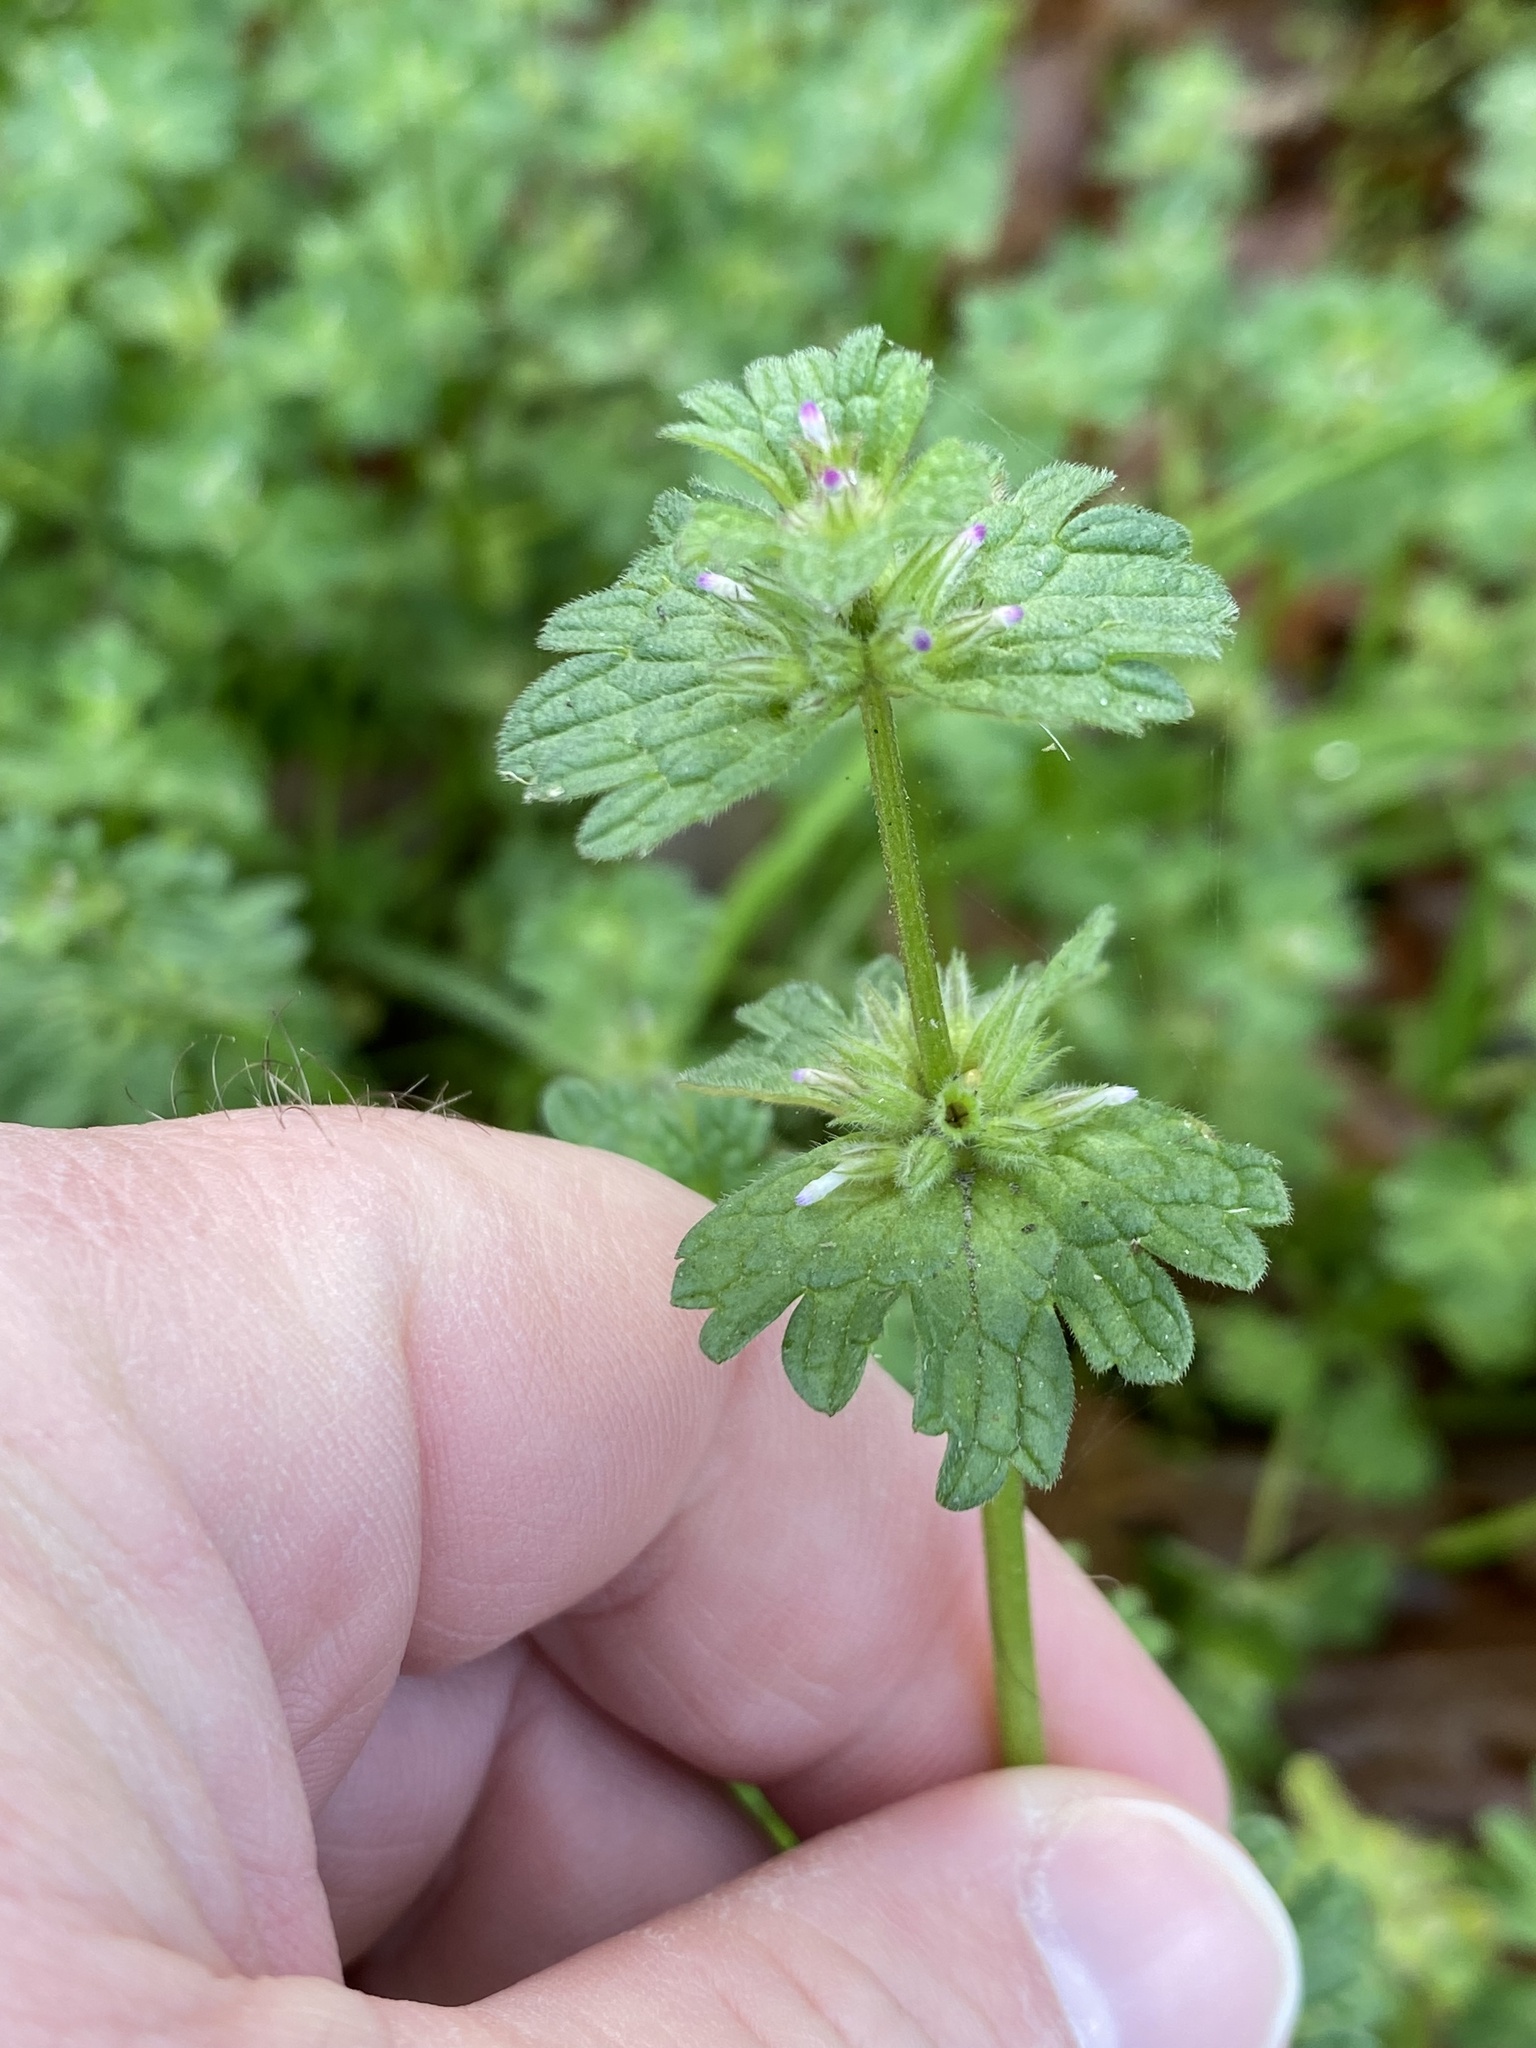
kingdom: Plantae
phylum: Tracheophyta
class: Magnoliopsida
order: Lamiales
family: Lamiaceae
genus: Lamium
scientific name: Lamium amplexicaule
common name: Henbit dead-nettle
